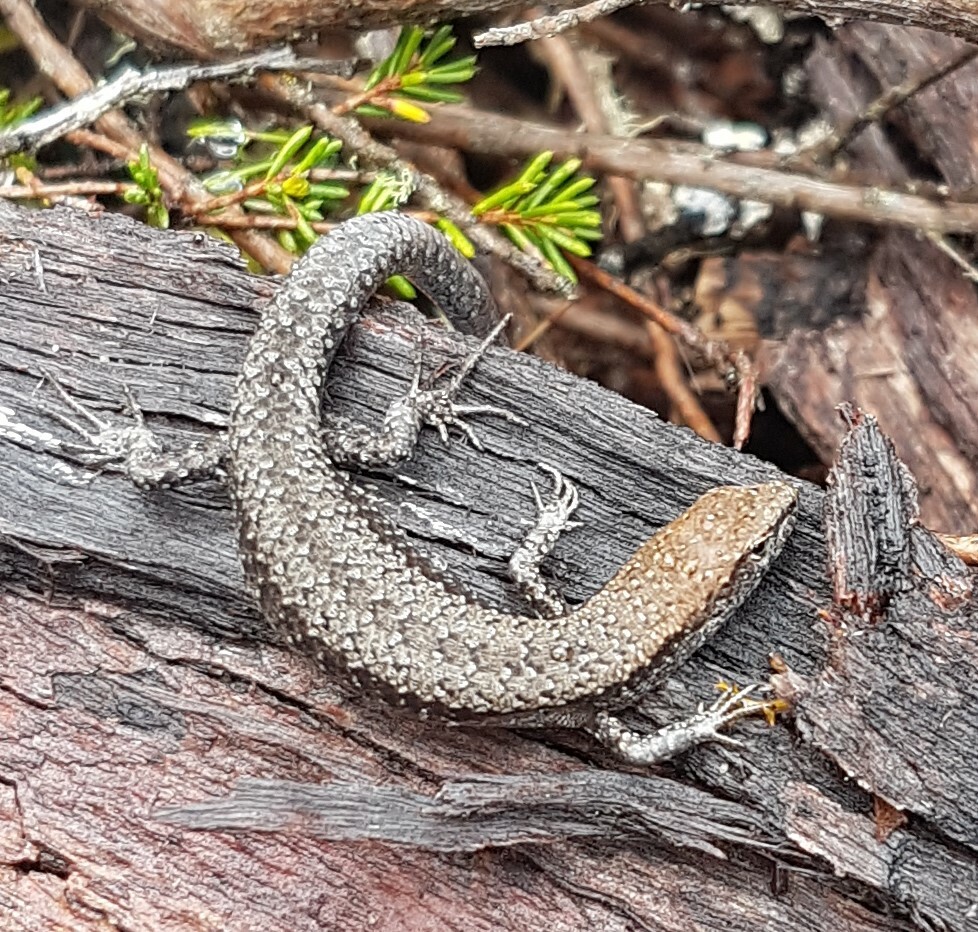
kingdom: Animalia
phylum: Chordata
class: Squamata
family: Scincidae
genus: Lampropholis
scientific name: Lampropholis guichenoti
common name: Garden skink
